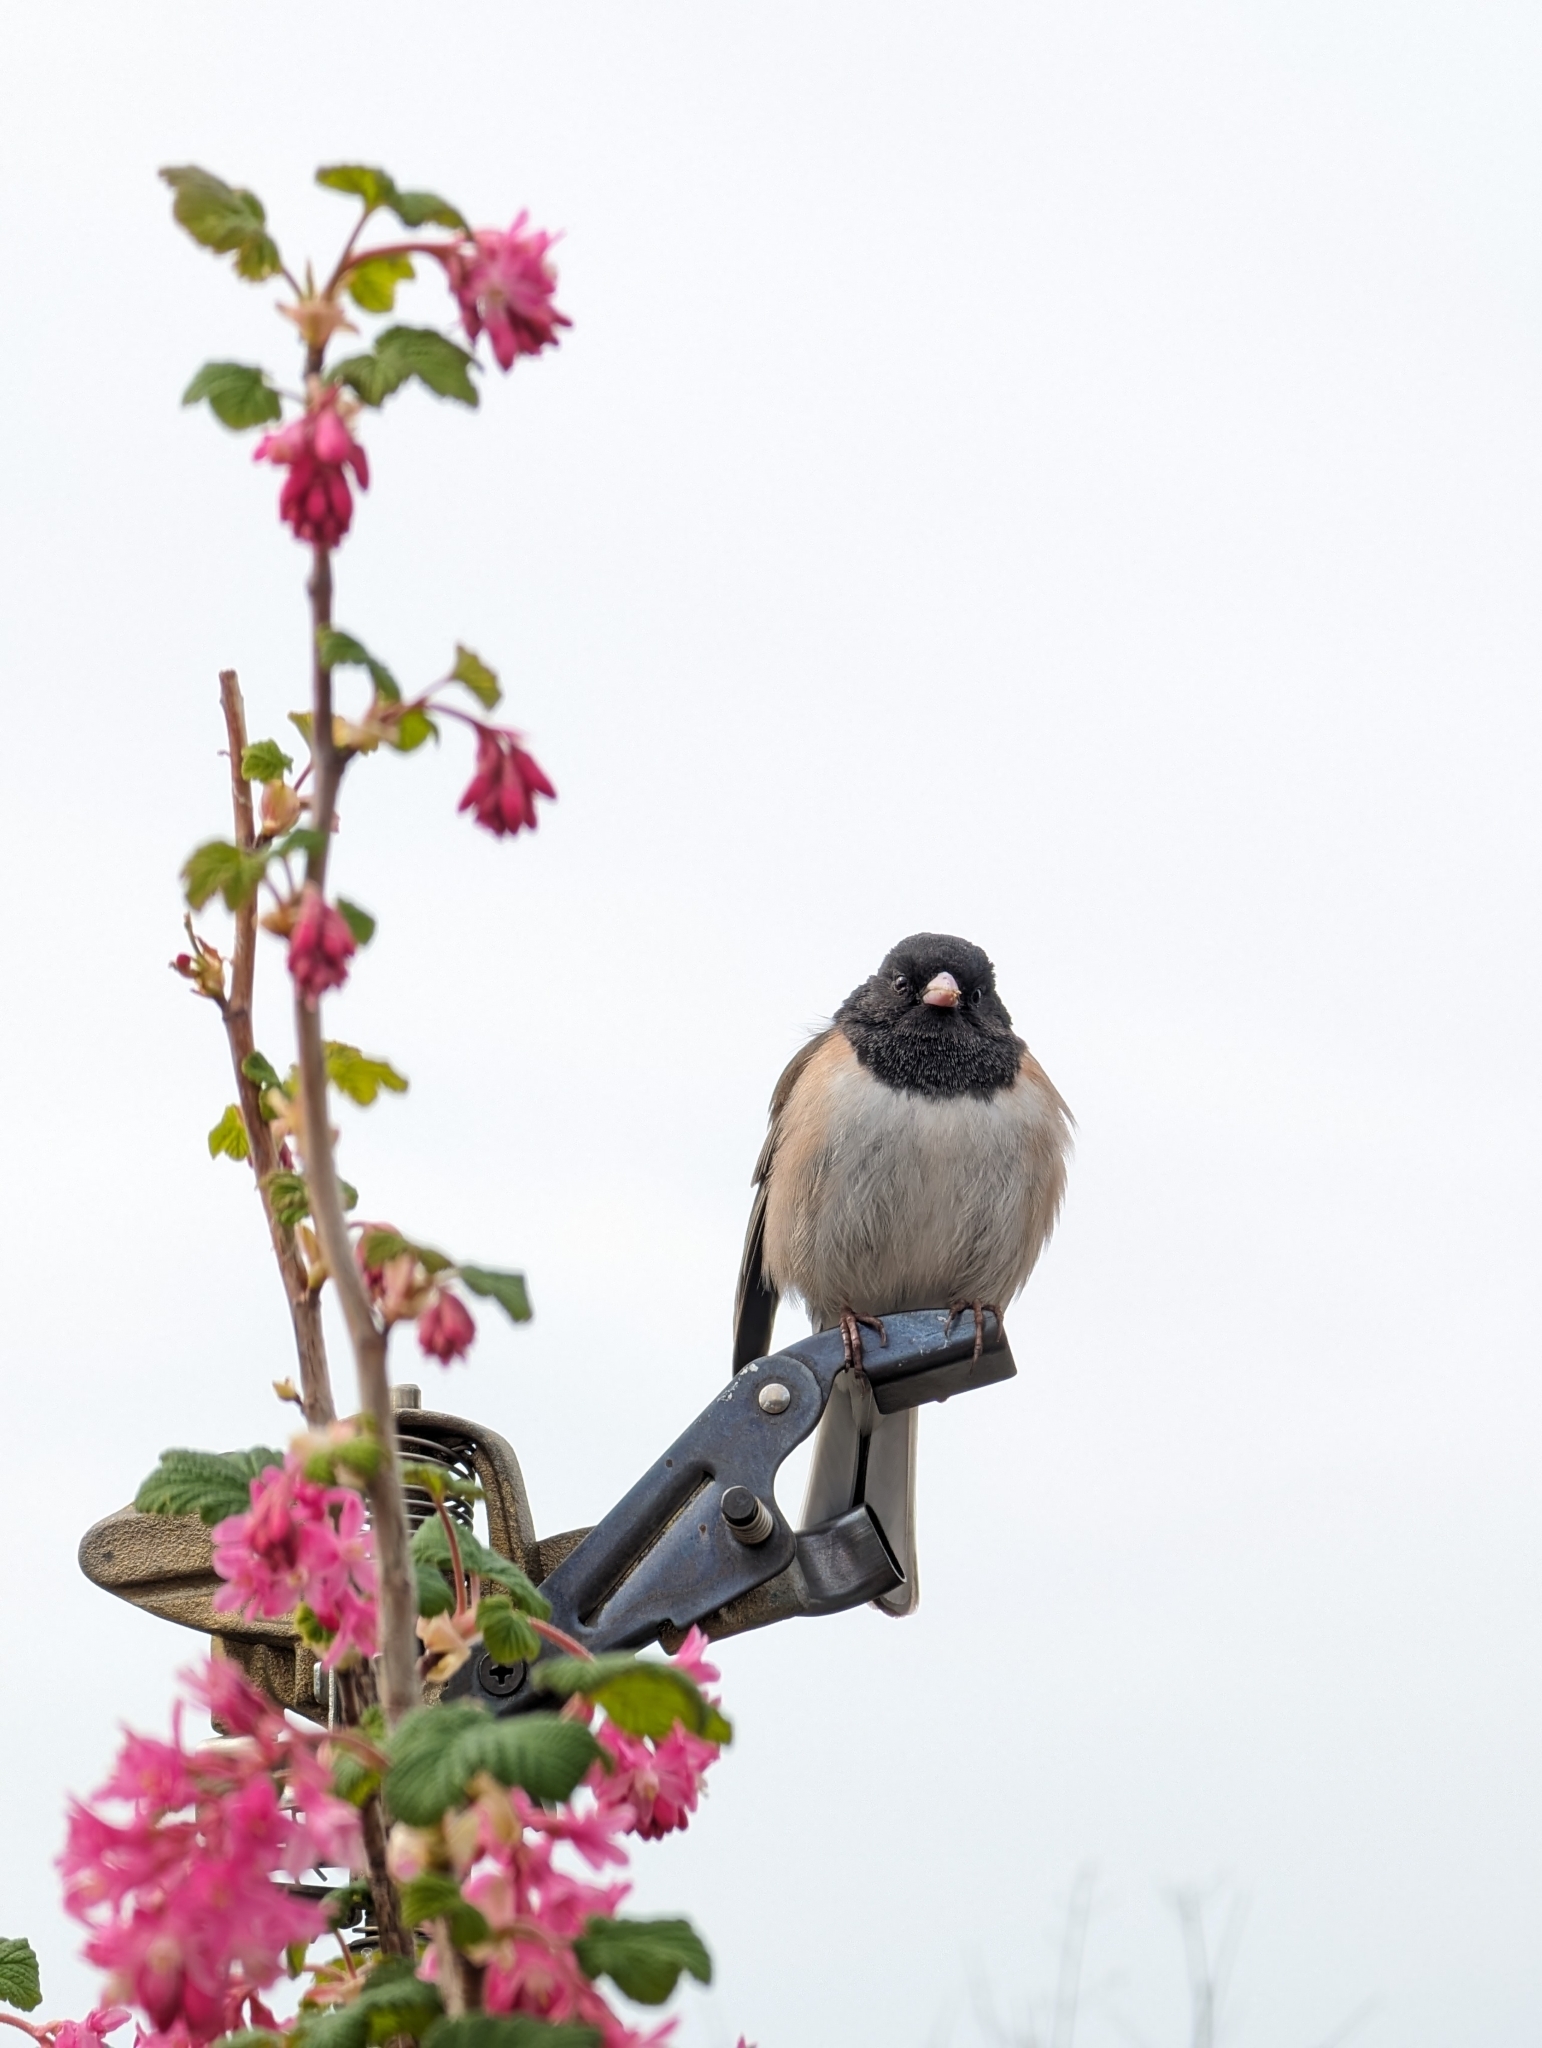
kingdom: Animalia
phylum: Chordata
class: Aves
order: Passeriformes
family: Passerellidae
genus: Junco
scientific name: Junco hyemalis
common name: Dark-eyed junco
